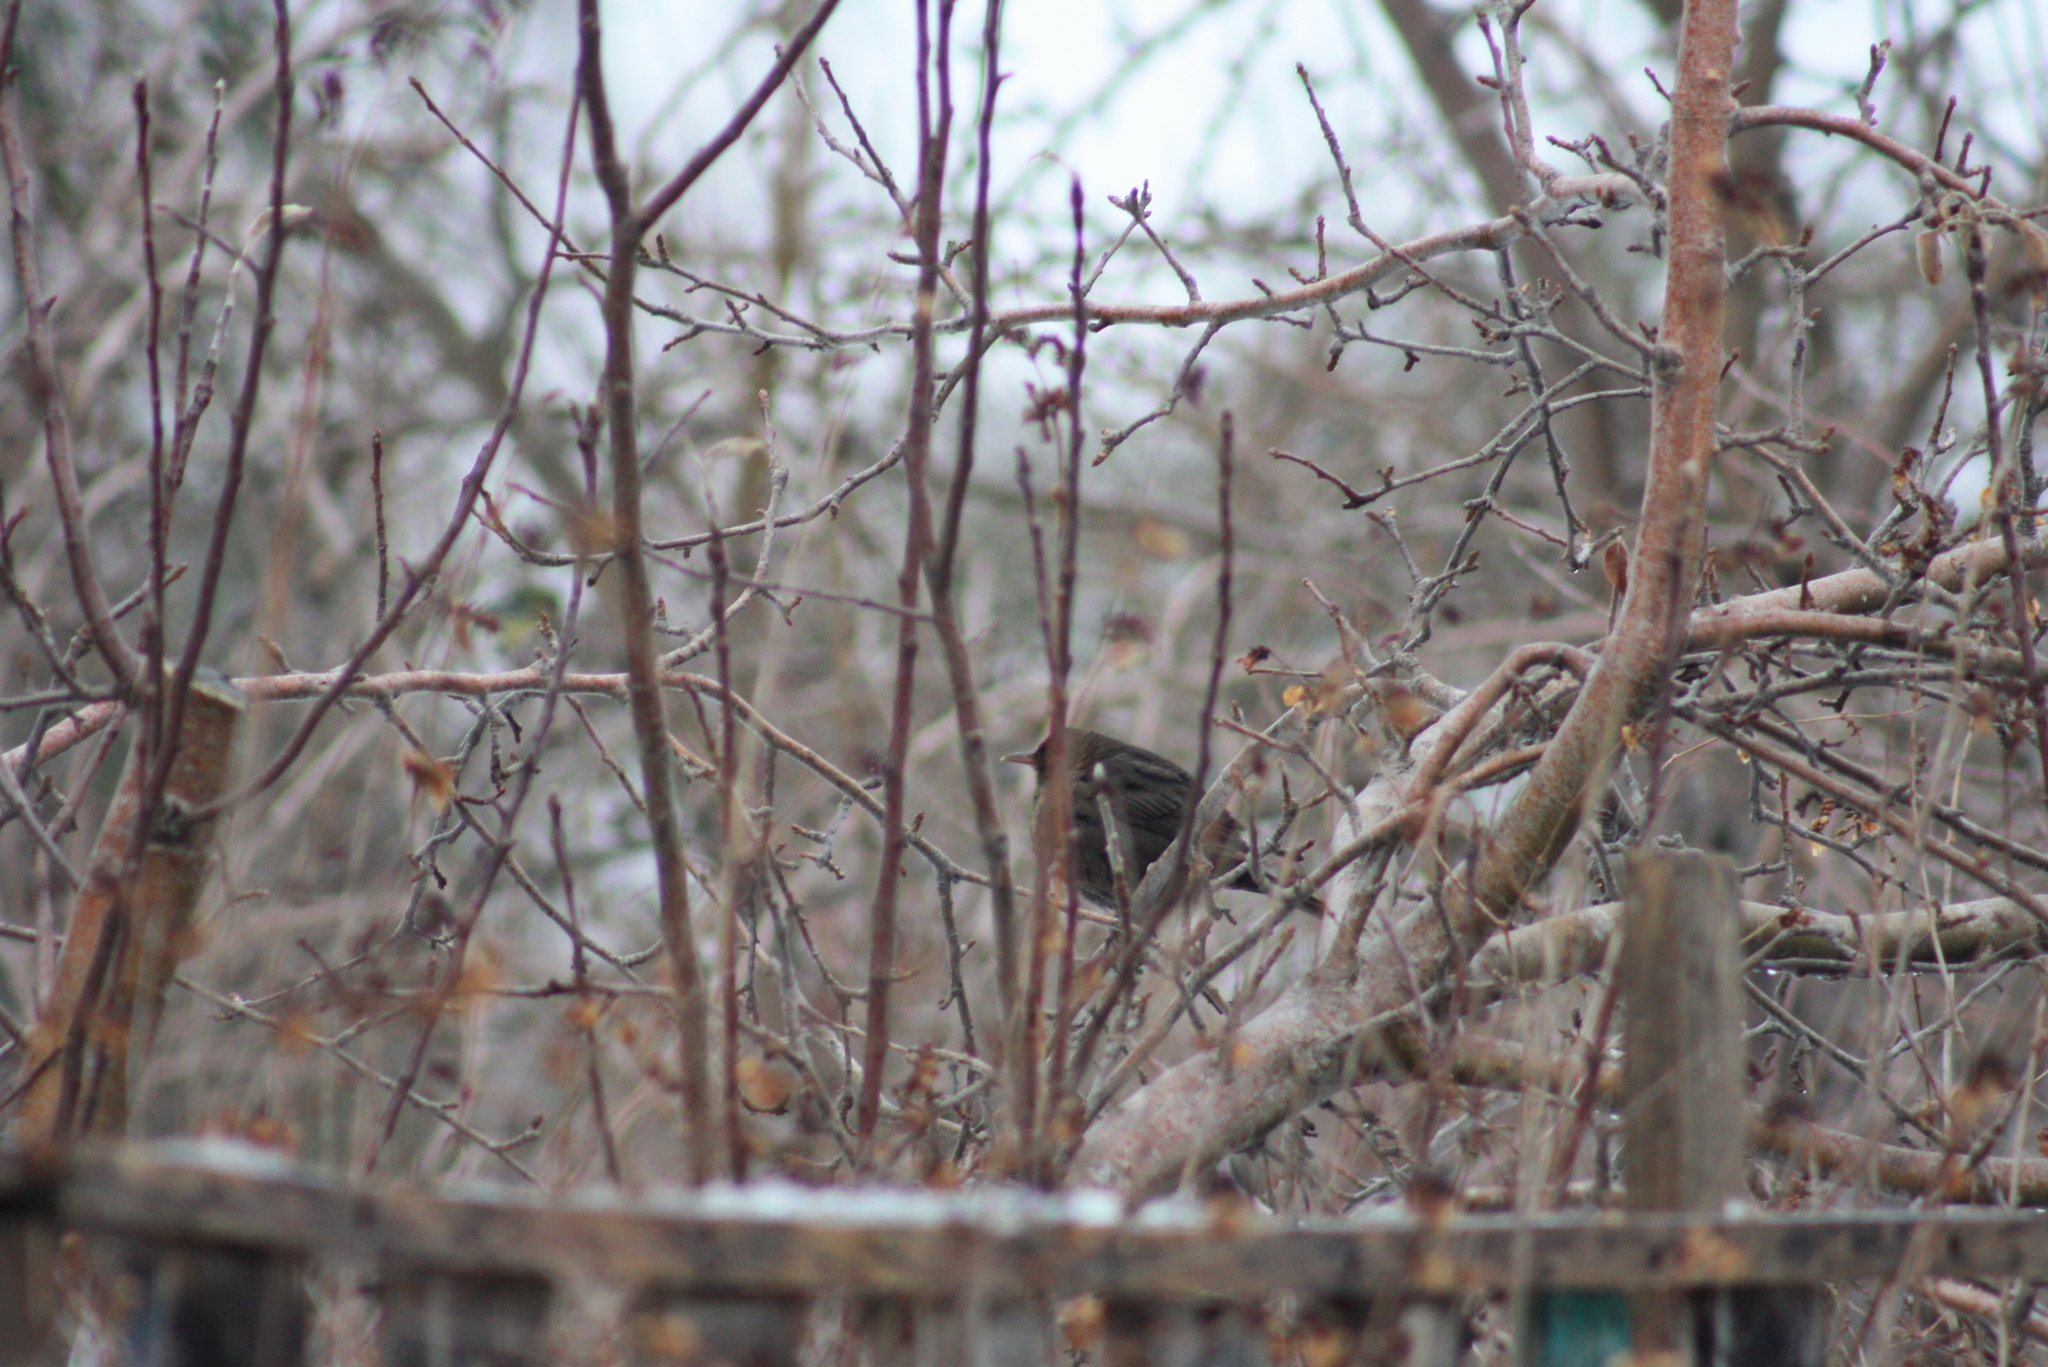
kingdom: Animalia
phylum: Chordata
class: Aves
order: Passeriformes
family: Turdidae
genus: Turdus
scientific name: Turdus merula
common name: Common blackbird
